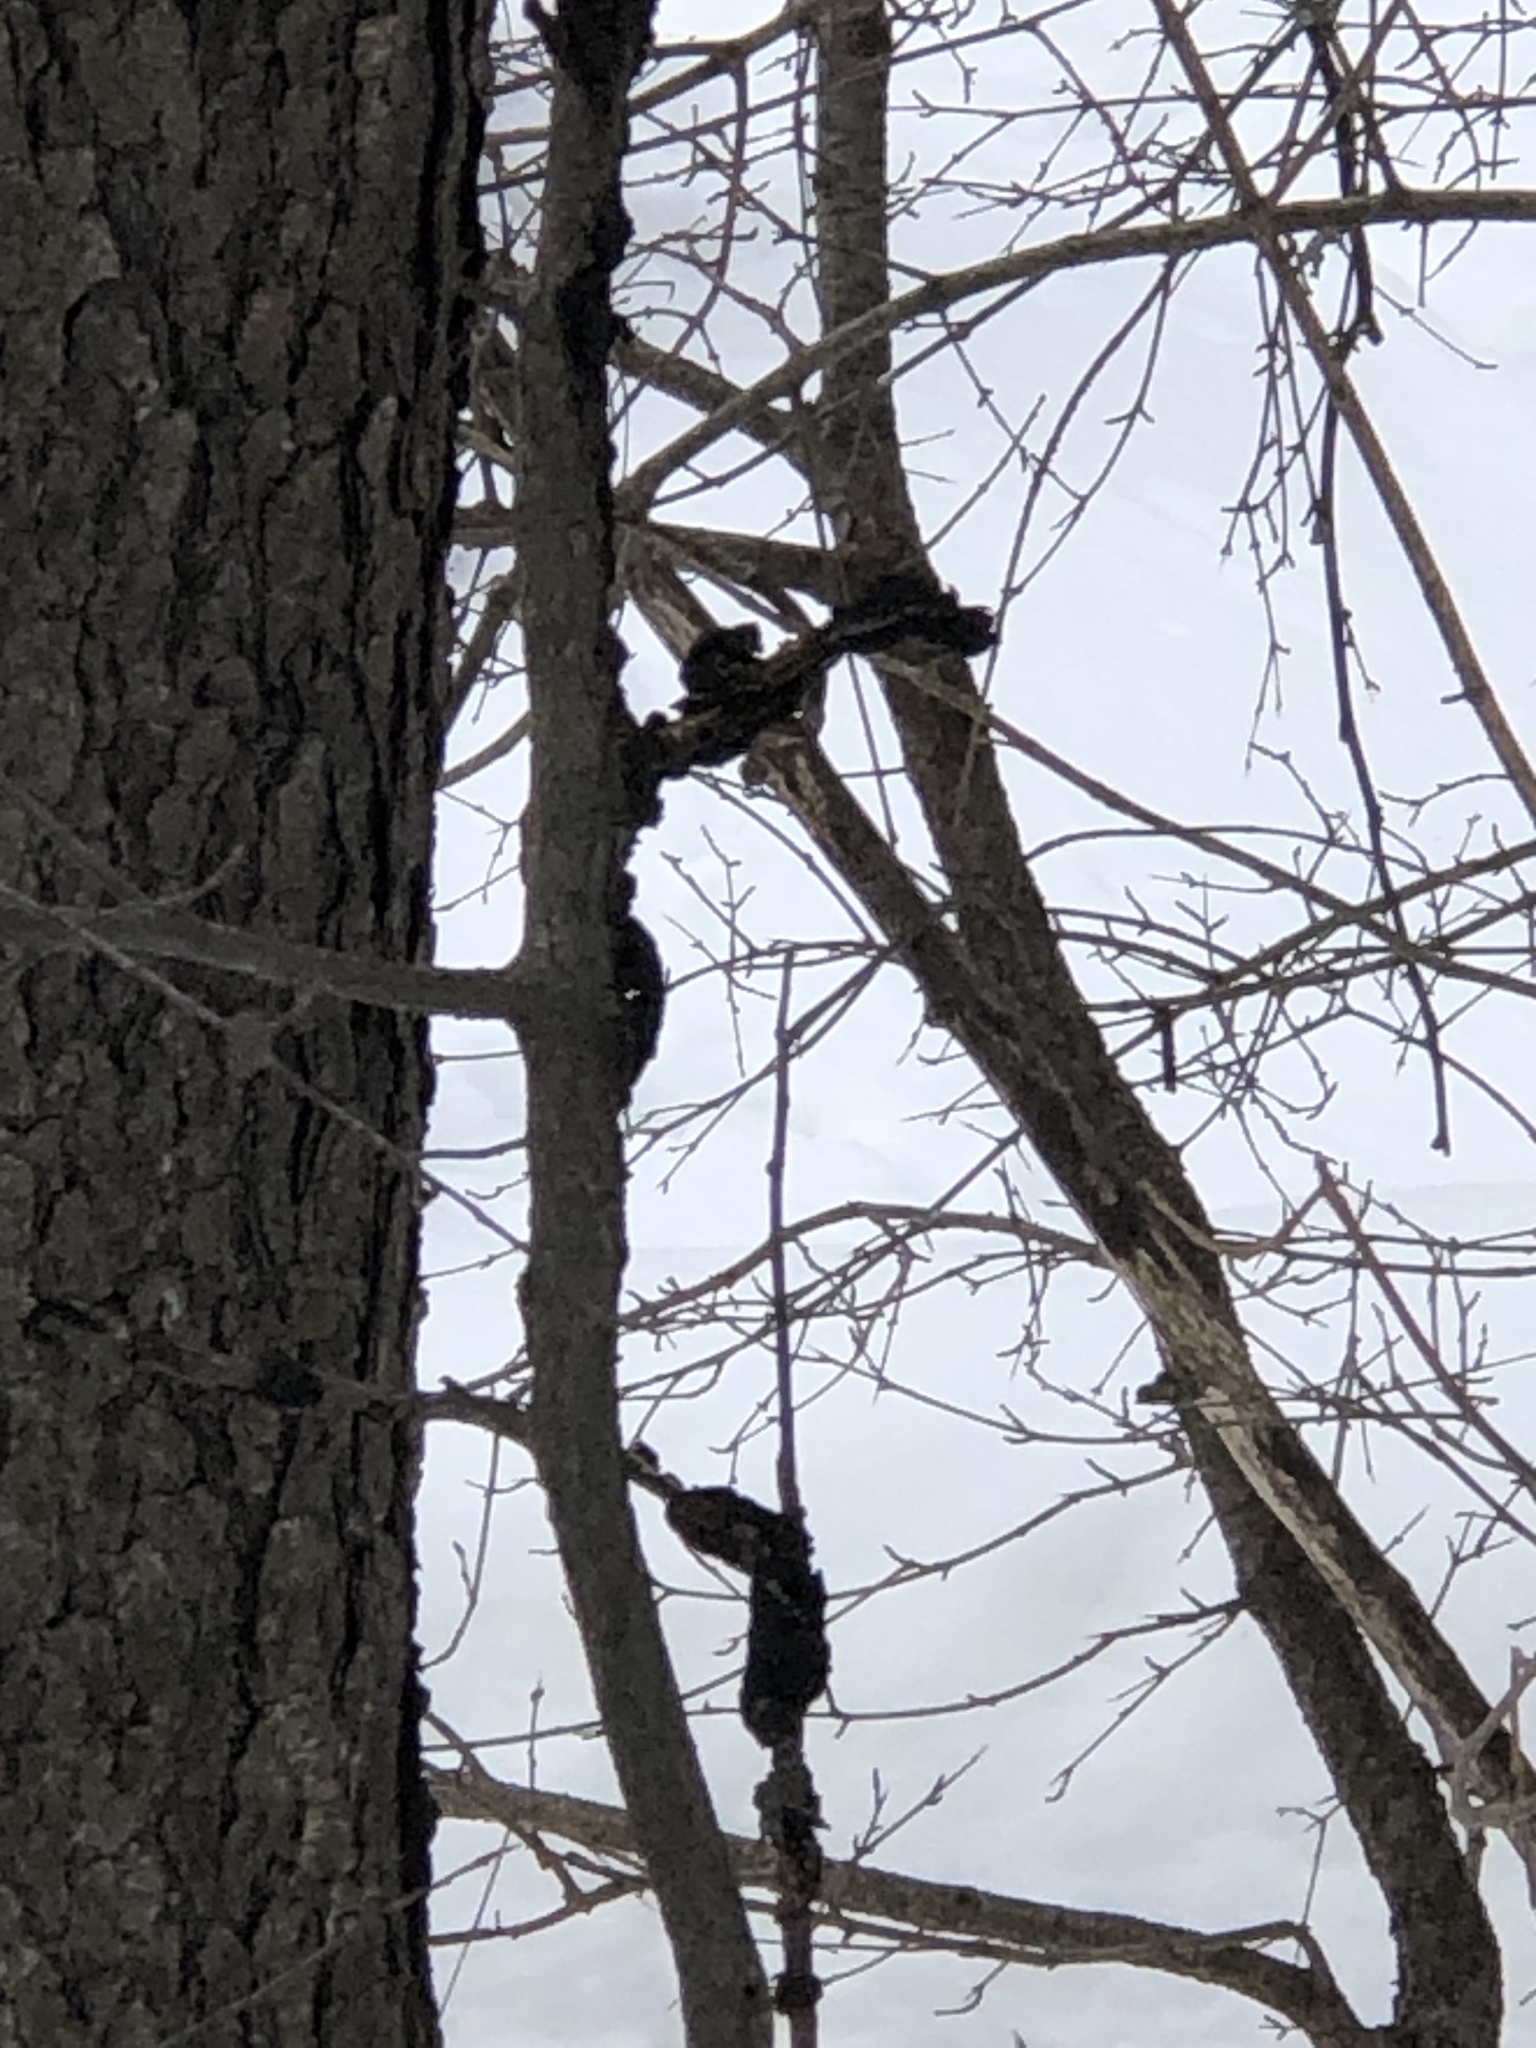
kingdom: Fungi
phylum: Ascomycota
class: Dothideomycetes
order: Venturiales
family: Venturiaceae
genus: Apiosporina
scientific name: Apiosporina morbosa
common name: Black knot
